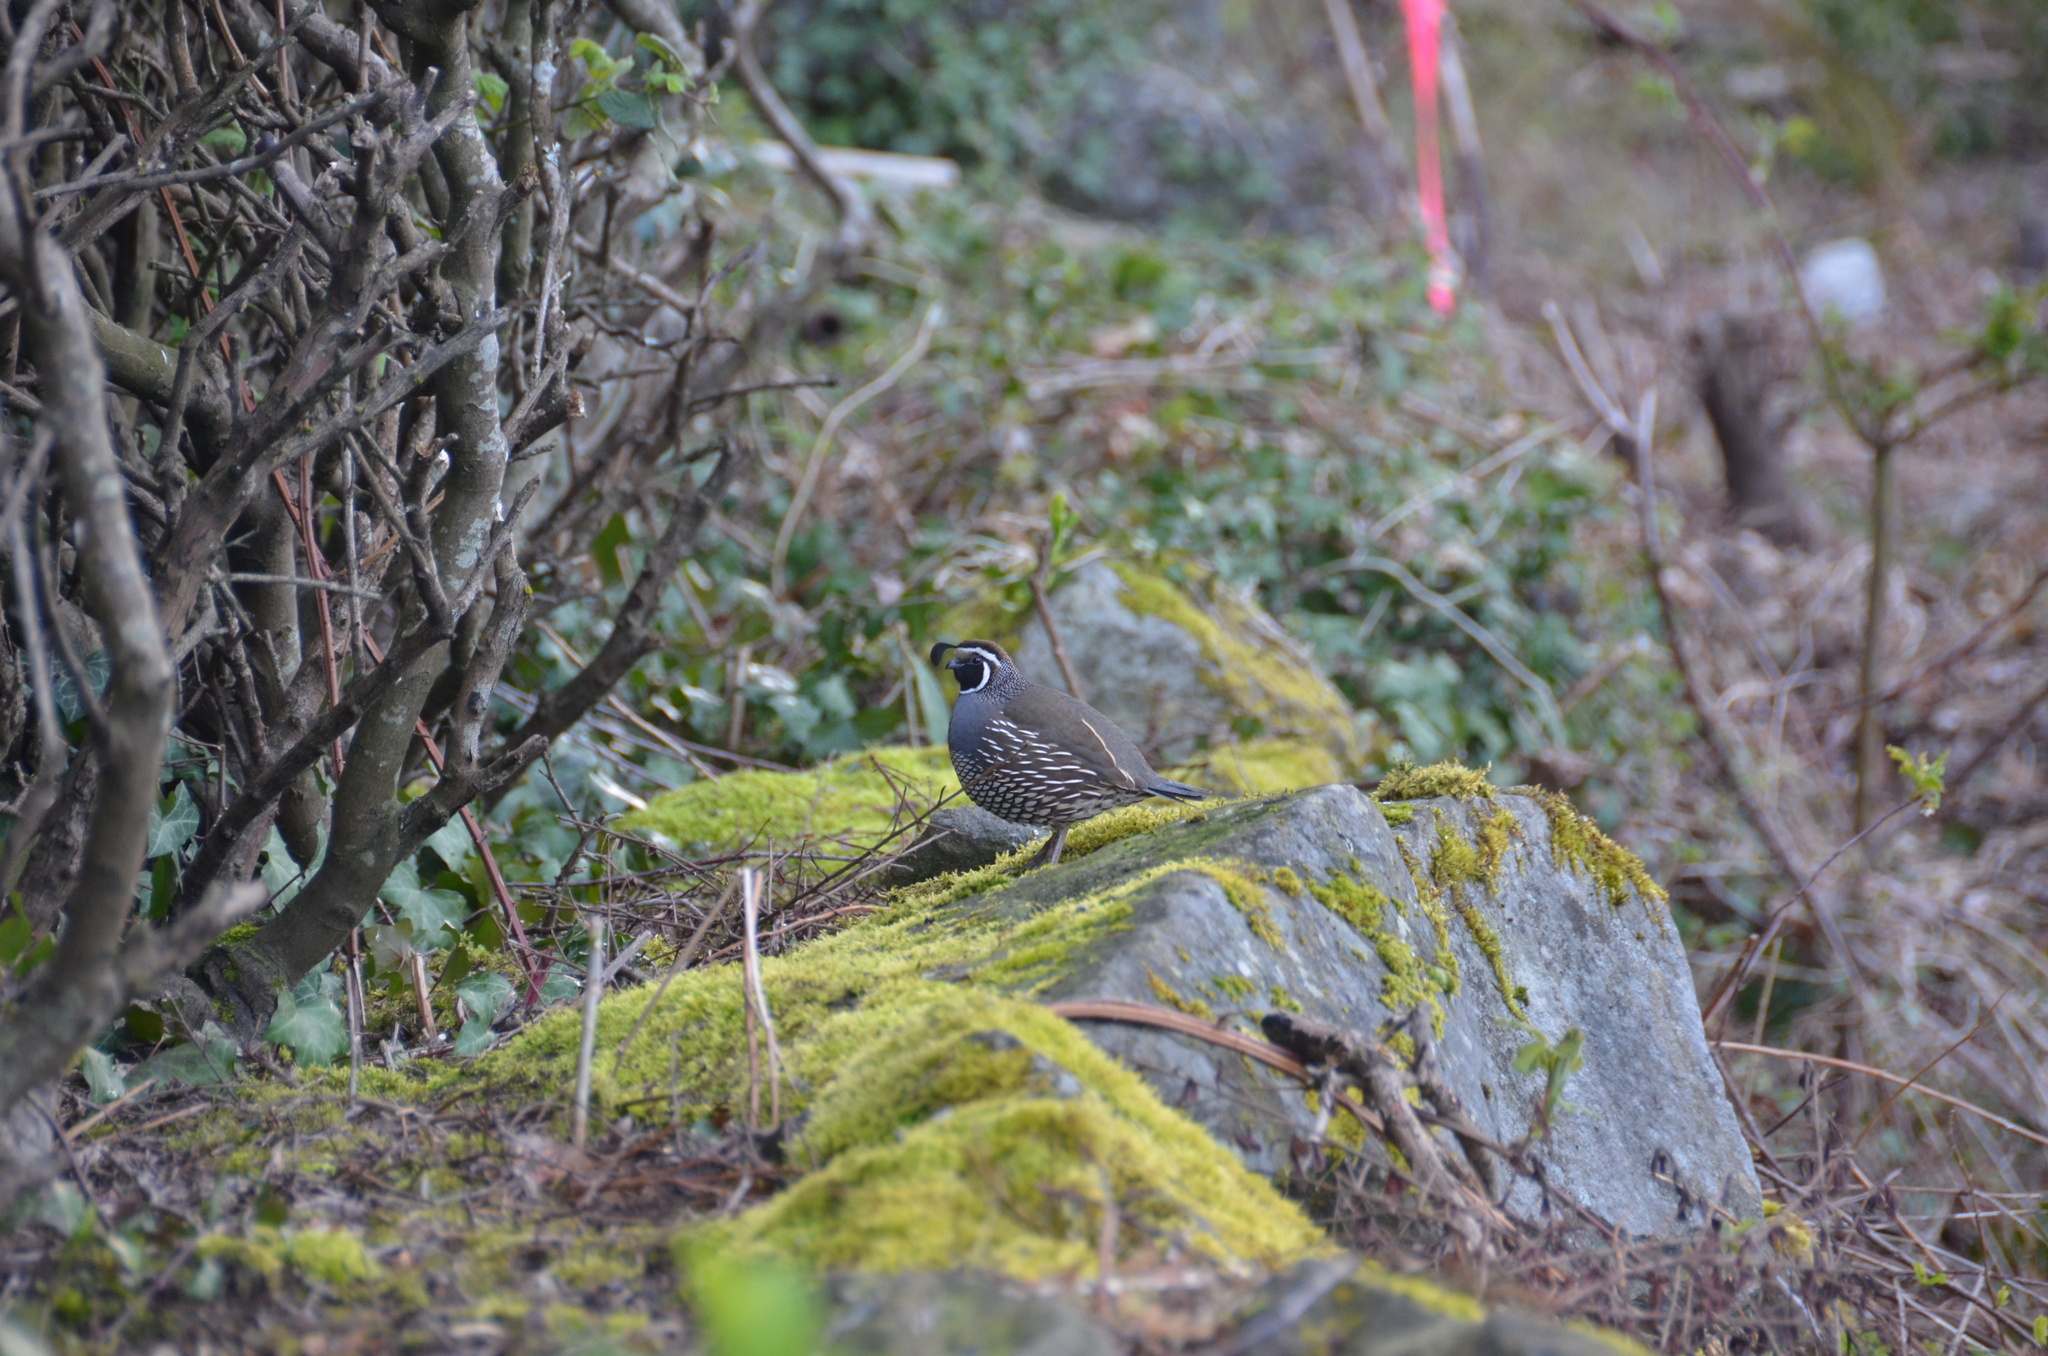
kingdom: Animalia
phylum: Chordata
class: Aves
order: Galliformes
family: Odontophoridae
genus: Callipepla
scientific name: Callipepla californica
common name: California quail
